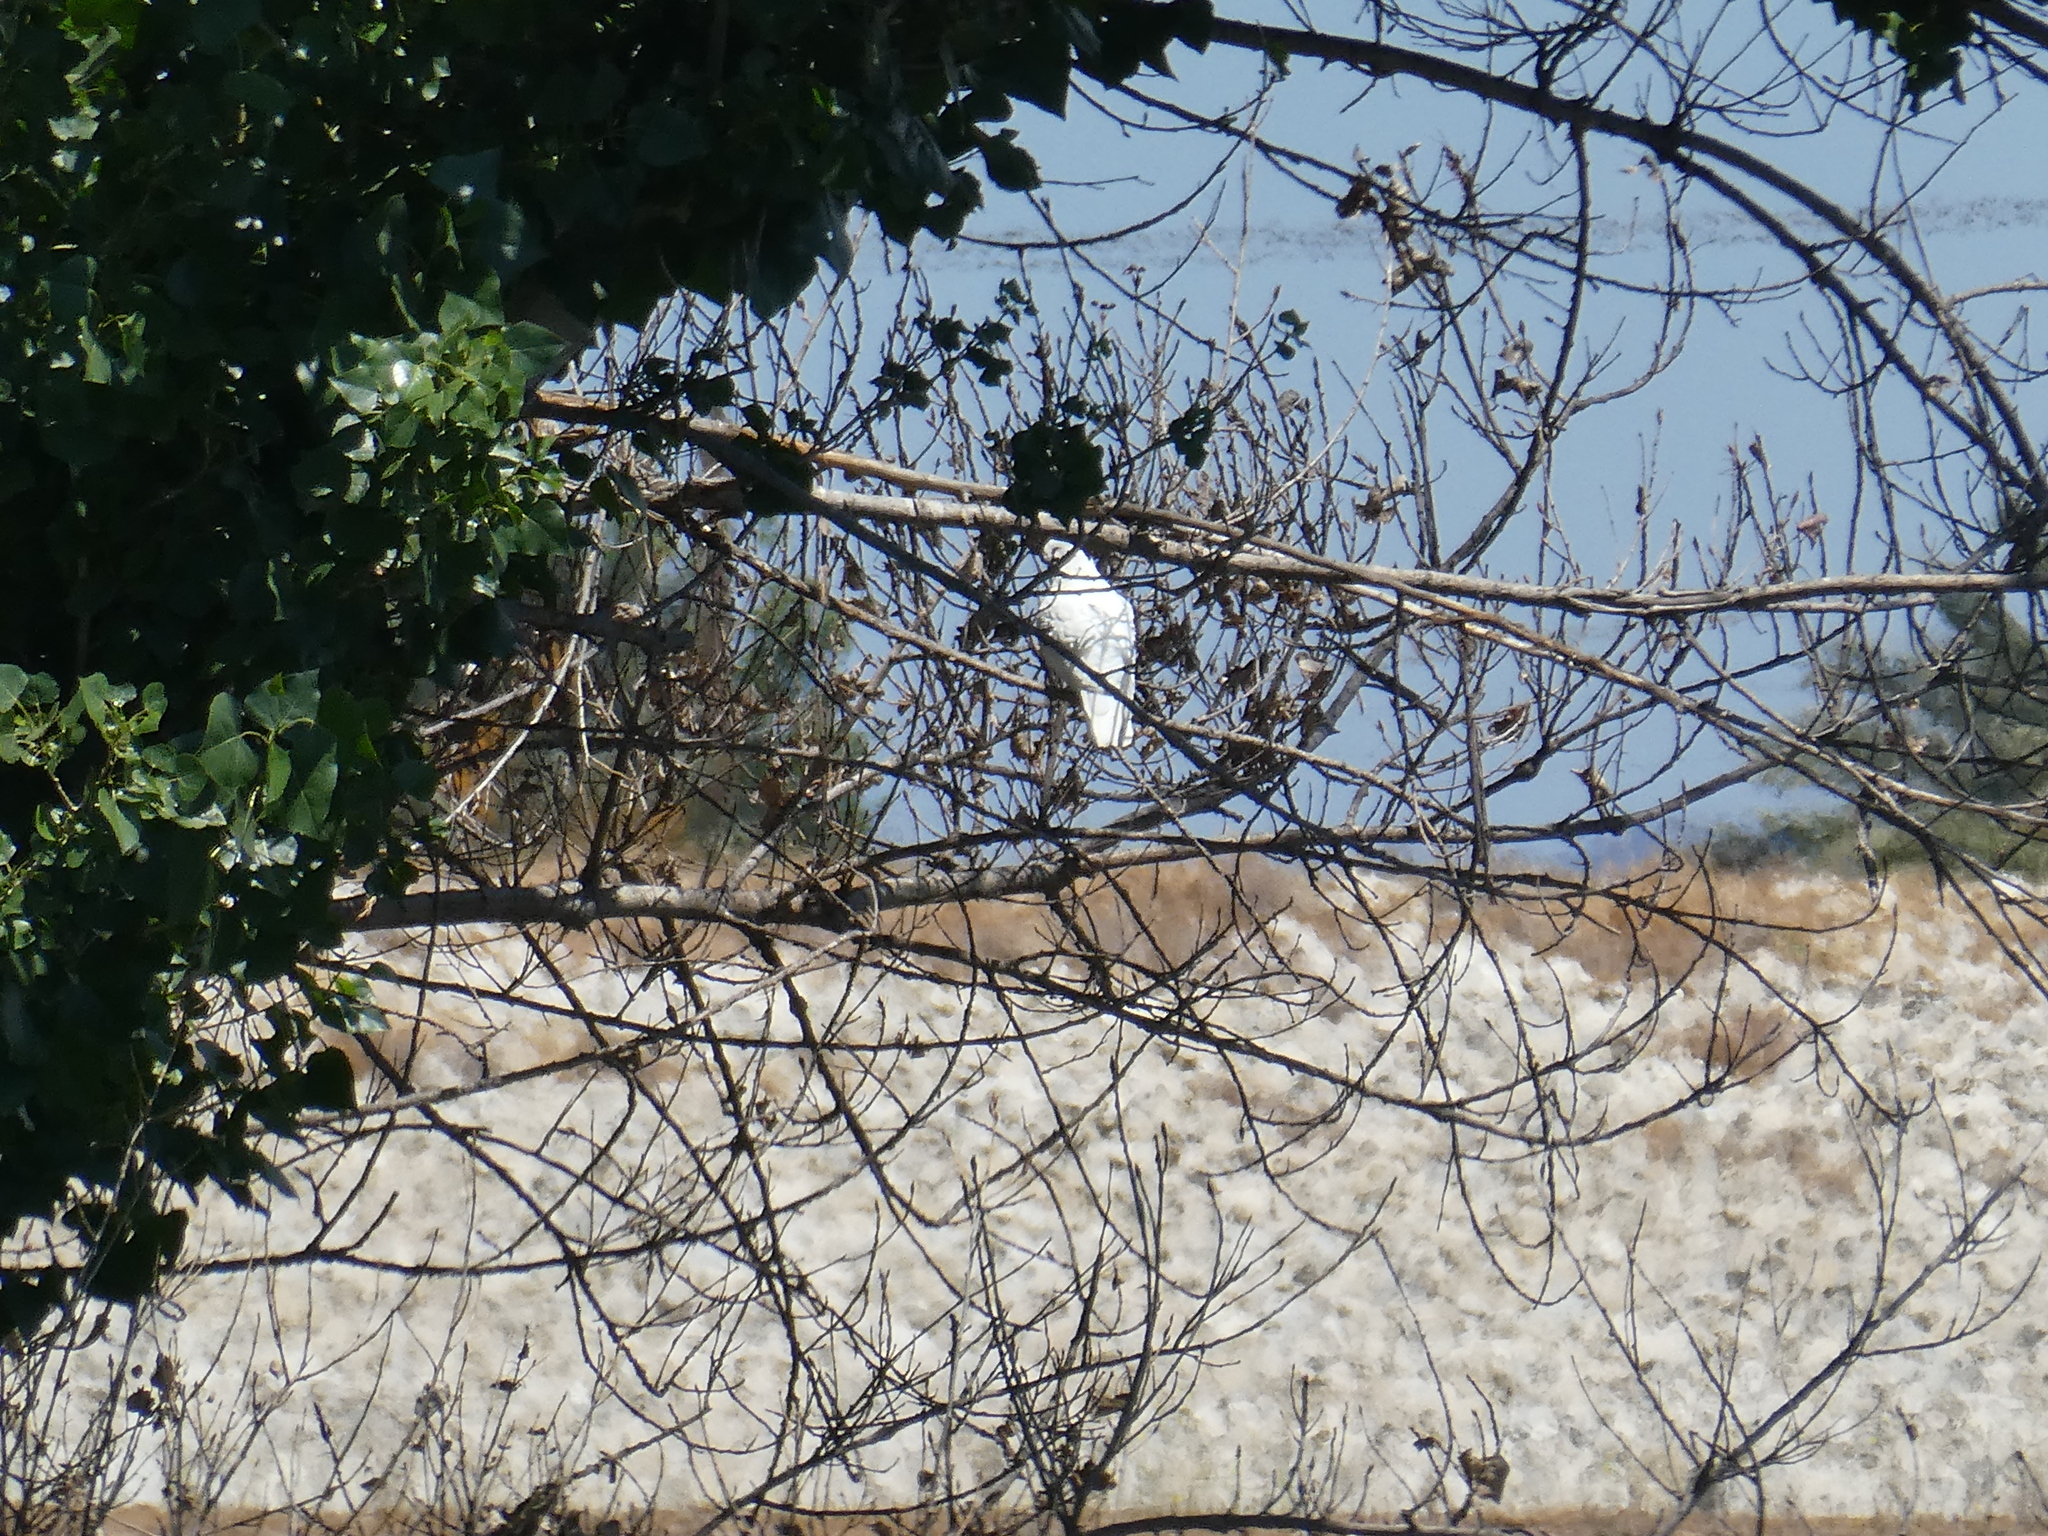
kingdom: Animalia
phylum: Chordata
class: Aves
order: Columbiformes
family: Columbidae
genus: Columba
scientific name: Columba livia
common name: Rock pigeon
